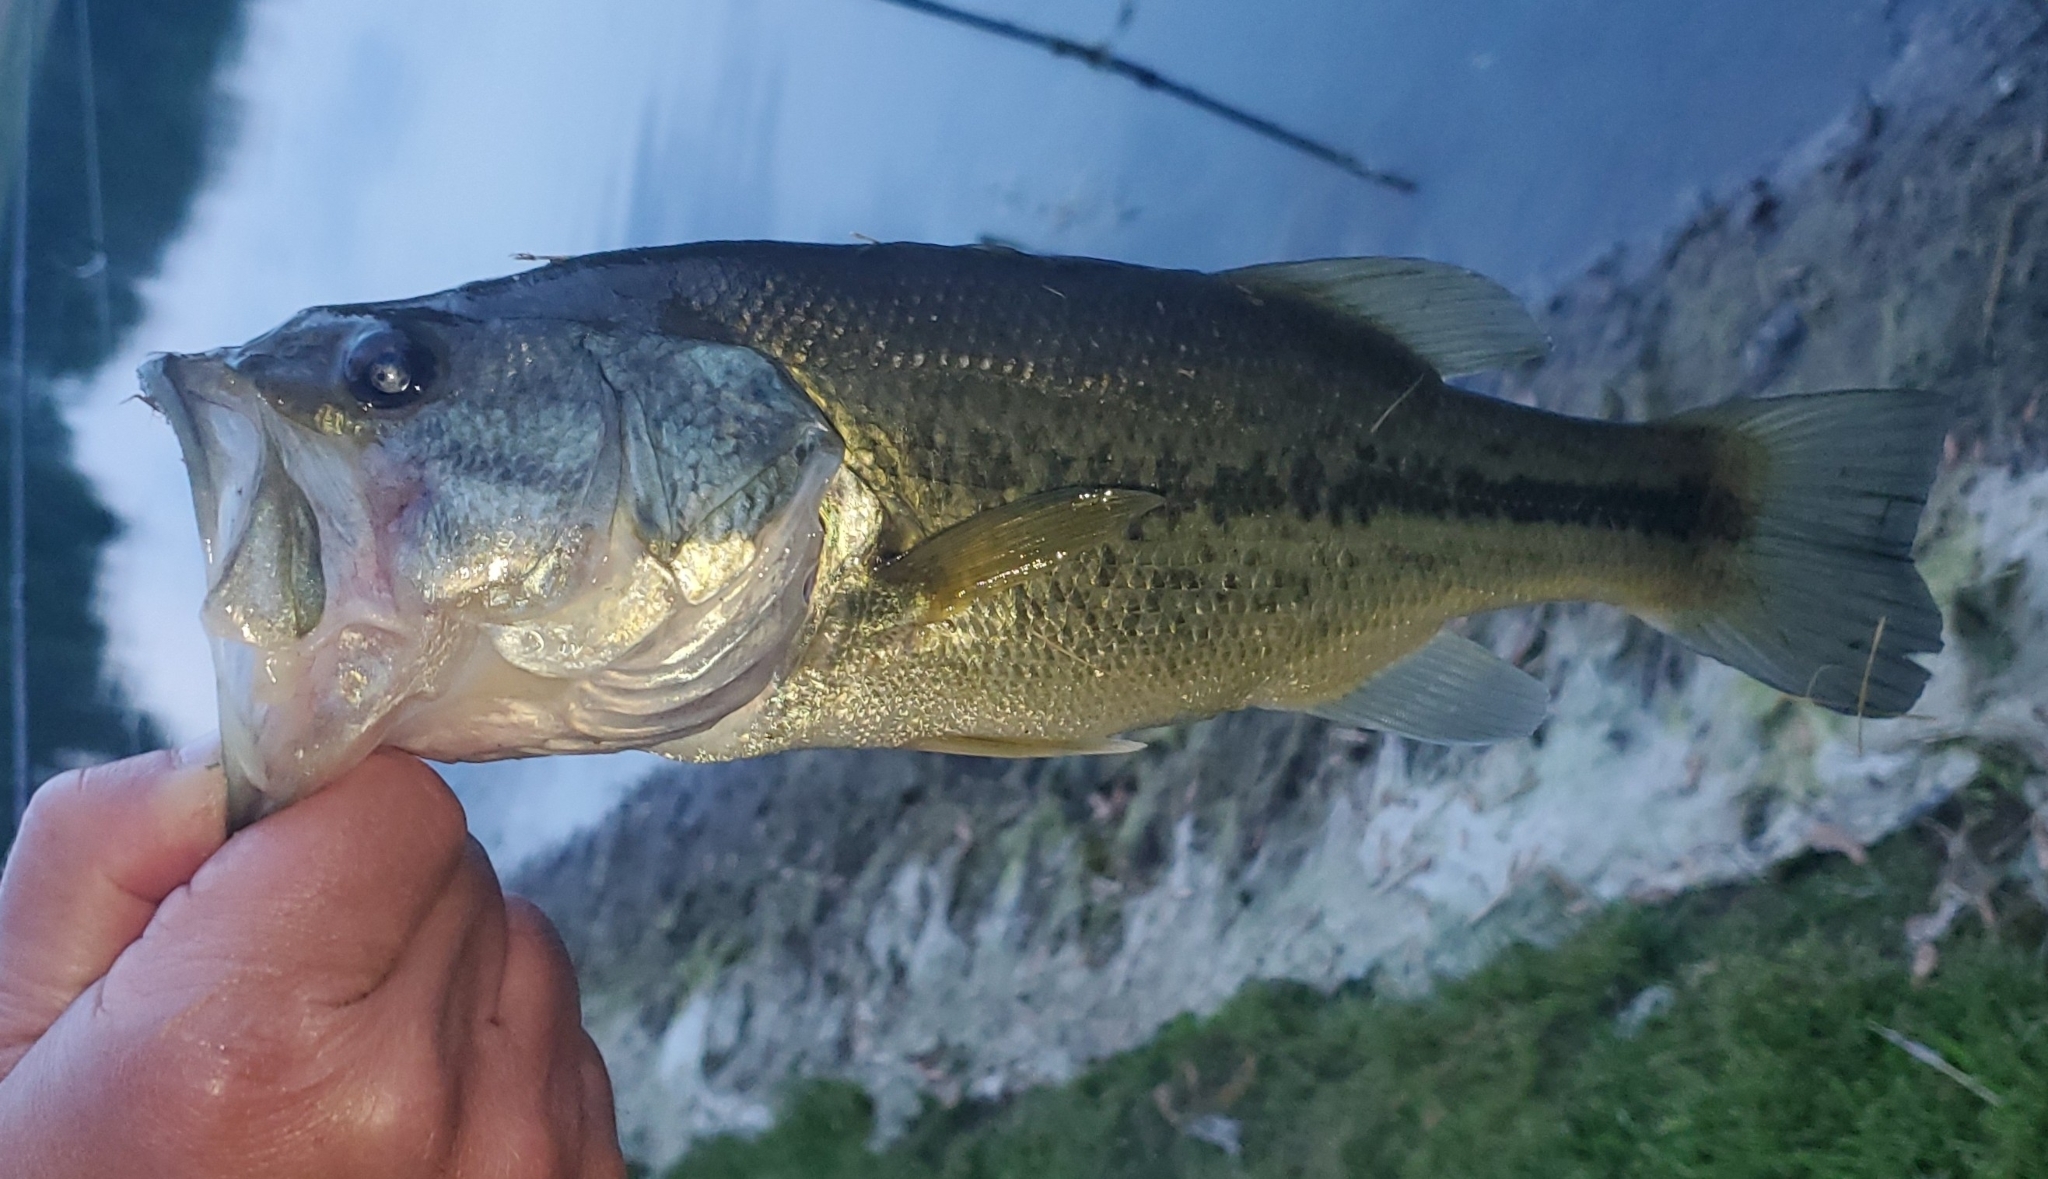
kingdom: Animalia
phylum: Chordata
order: Perciformes
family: Centrarchidae
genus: Micropterus
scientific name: Micropterus
